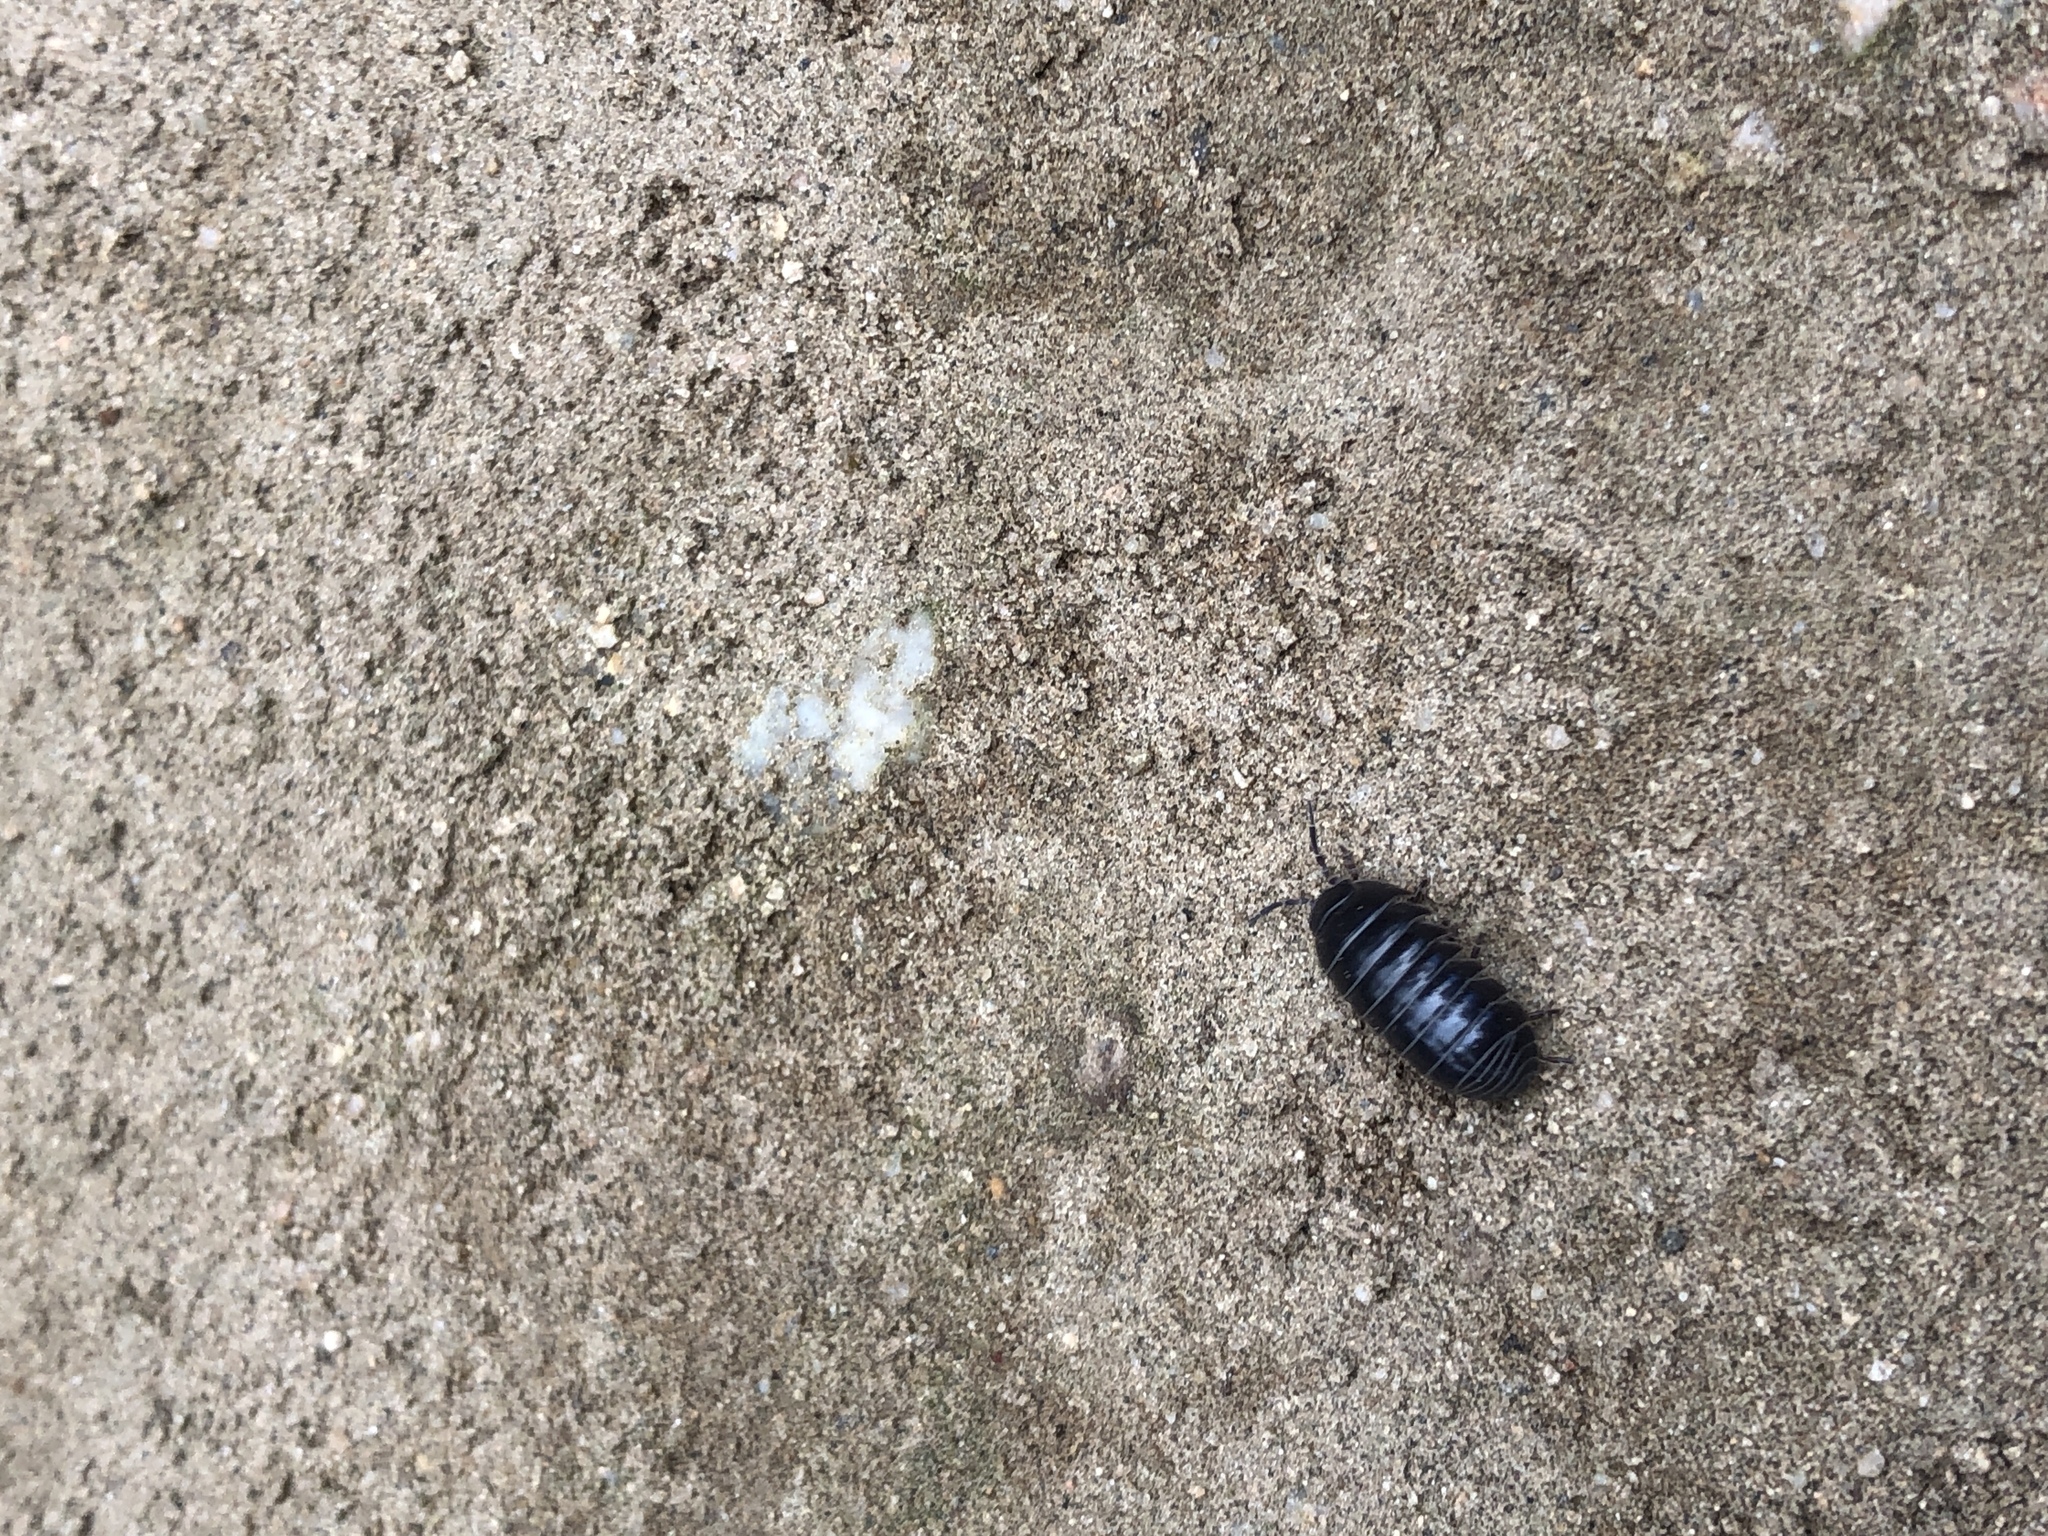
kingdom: Animalia
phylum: Arthropoda
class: Malacostraca
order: Isopoda
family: Armadillidiidae
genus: Armadillidium
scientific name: Armadillidium vulgare
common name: Common pill woodlouse
